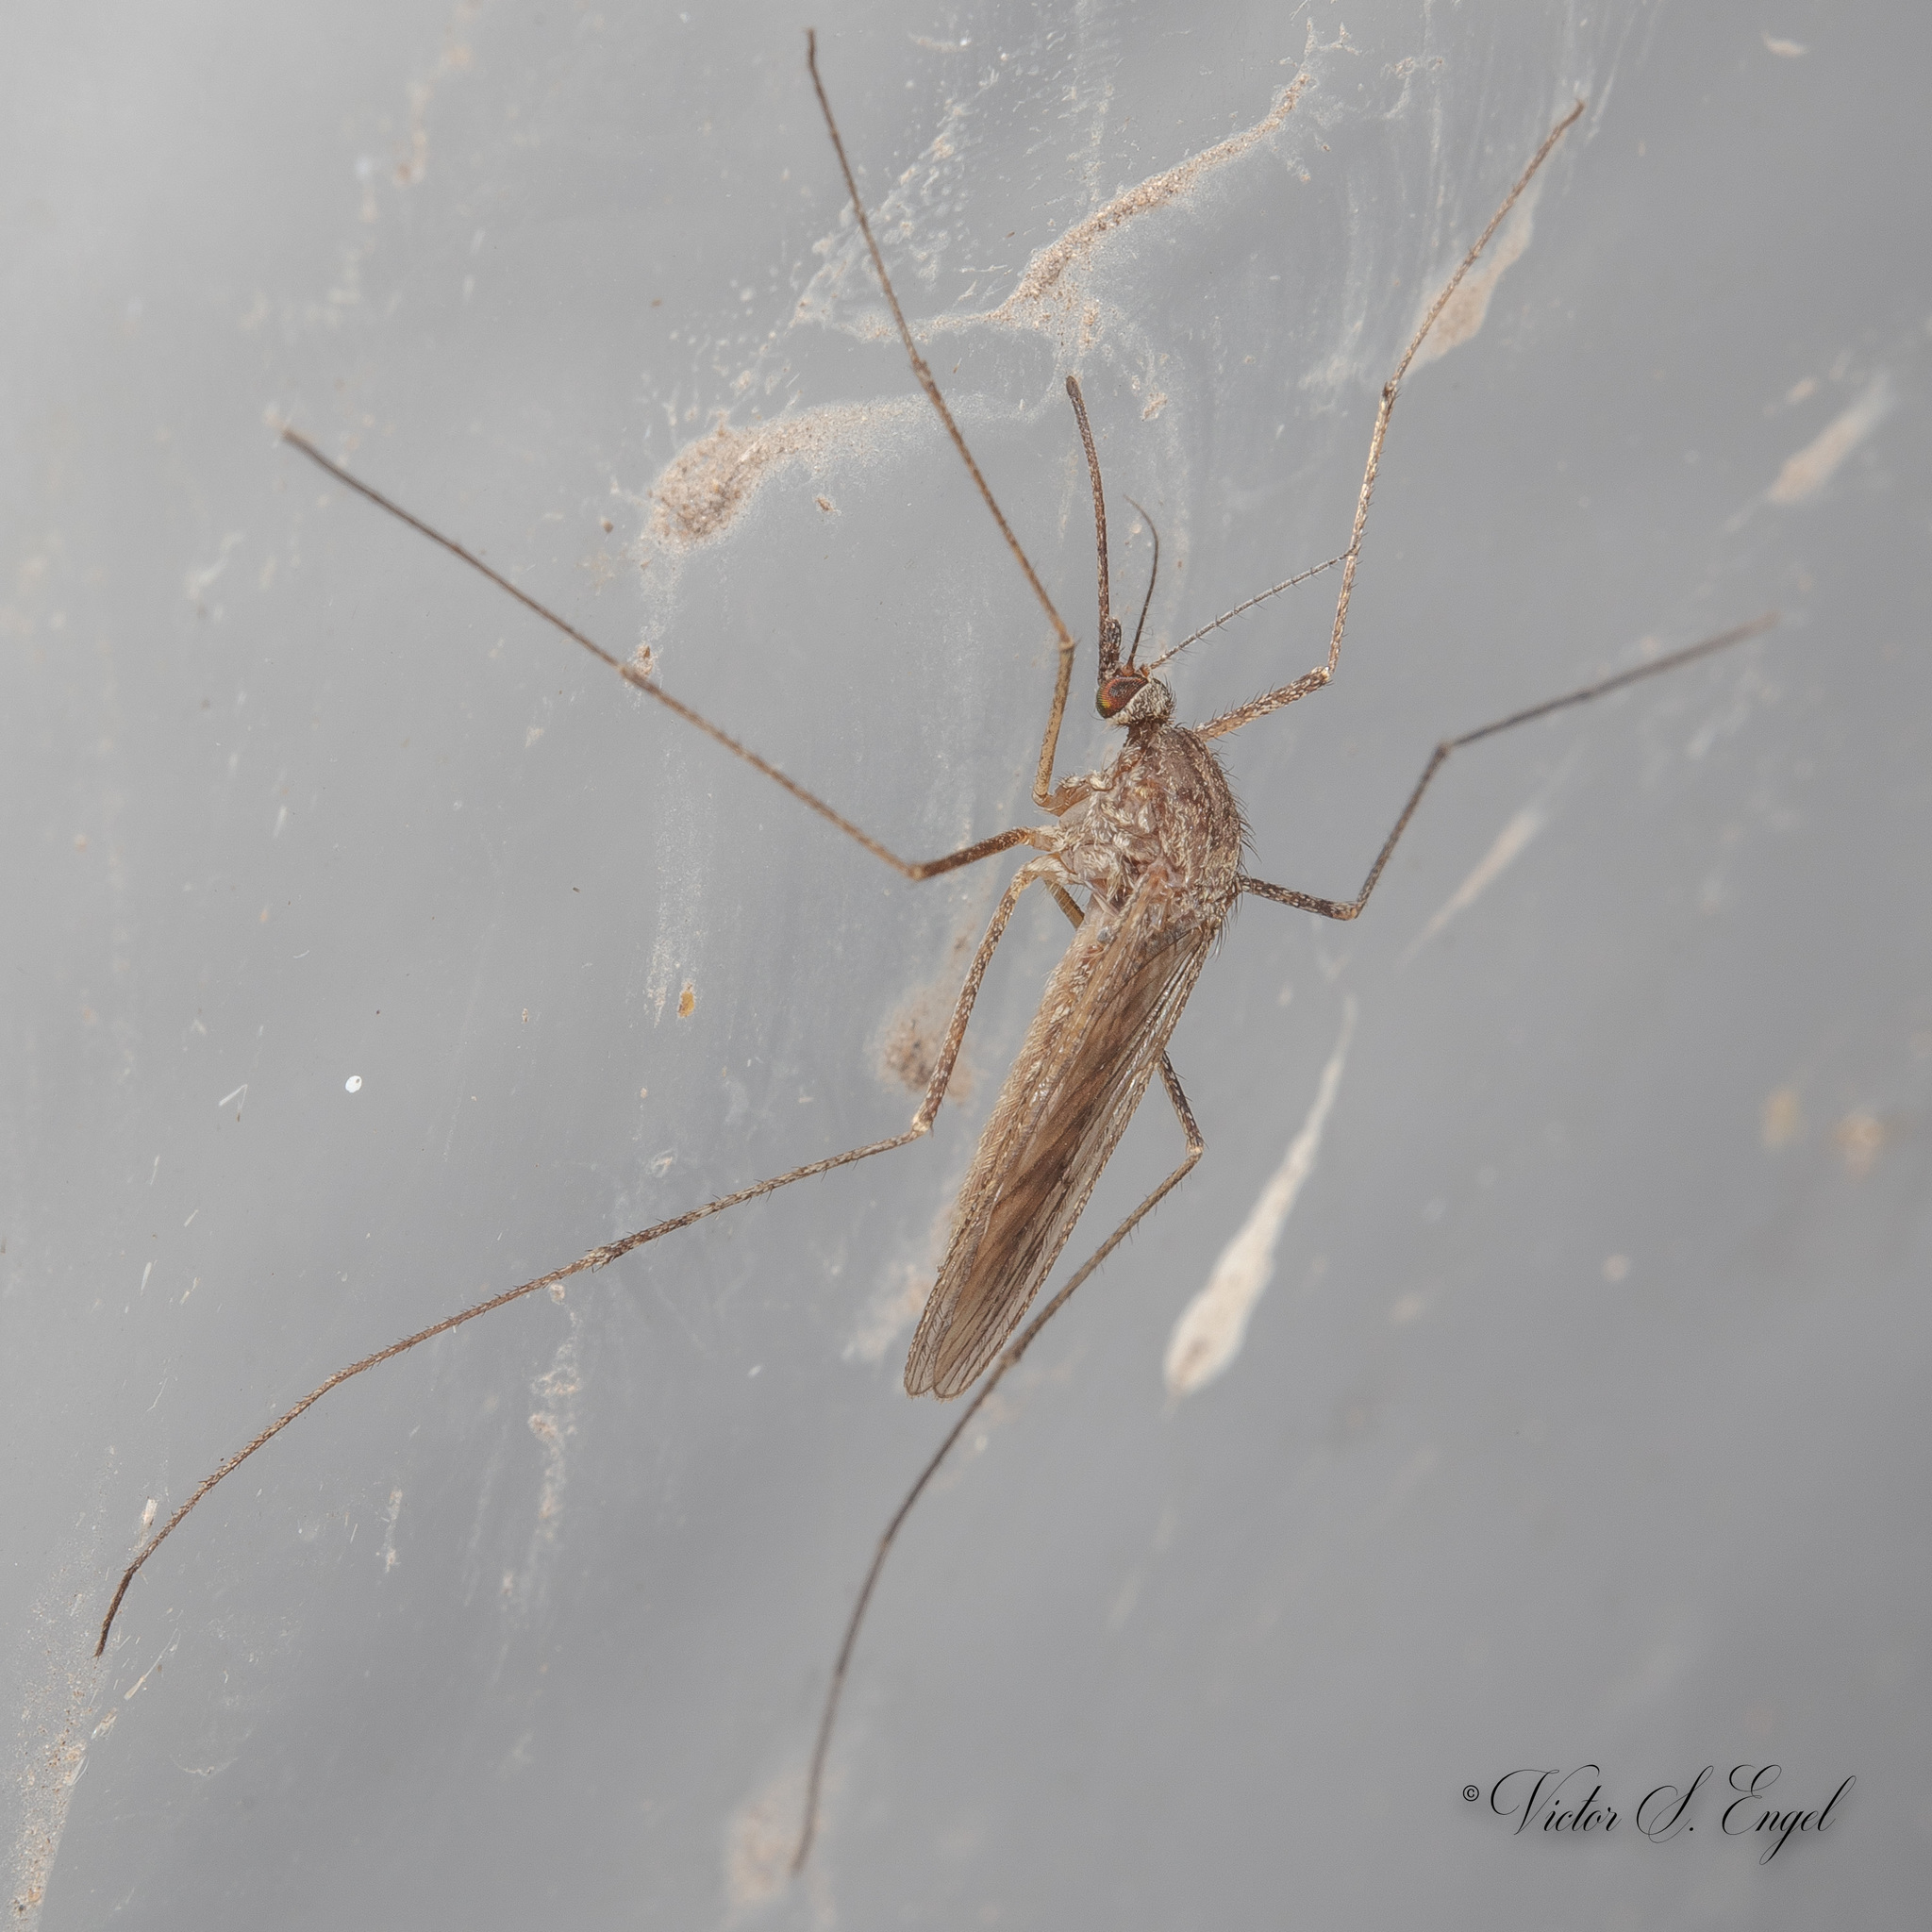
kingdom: Animalia
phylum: Arthropoda
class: Insecta
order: Diptera
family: Culicidae
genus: Culiseta
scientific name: Culiseta inornata
